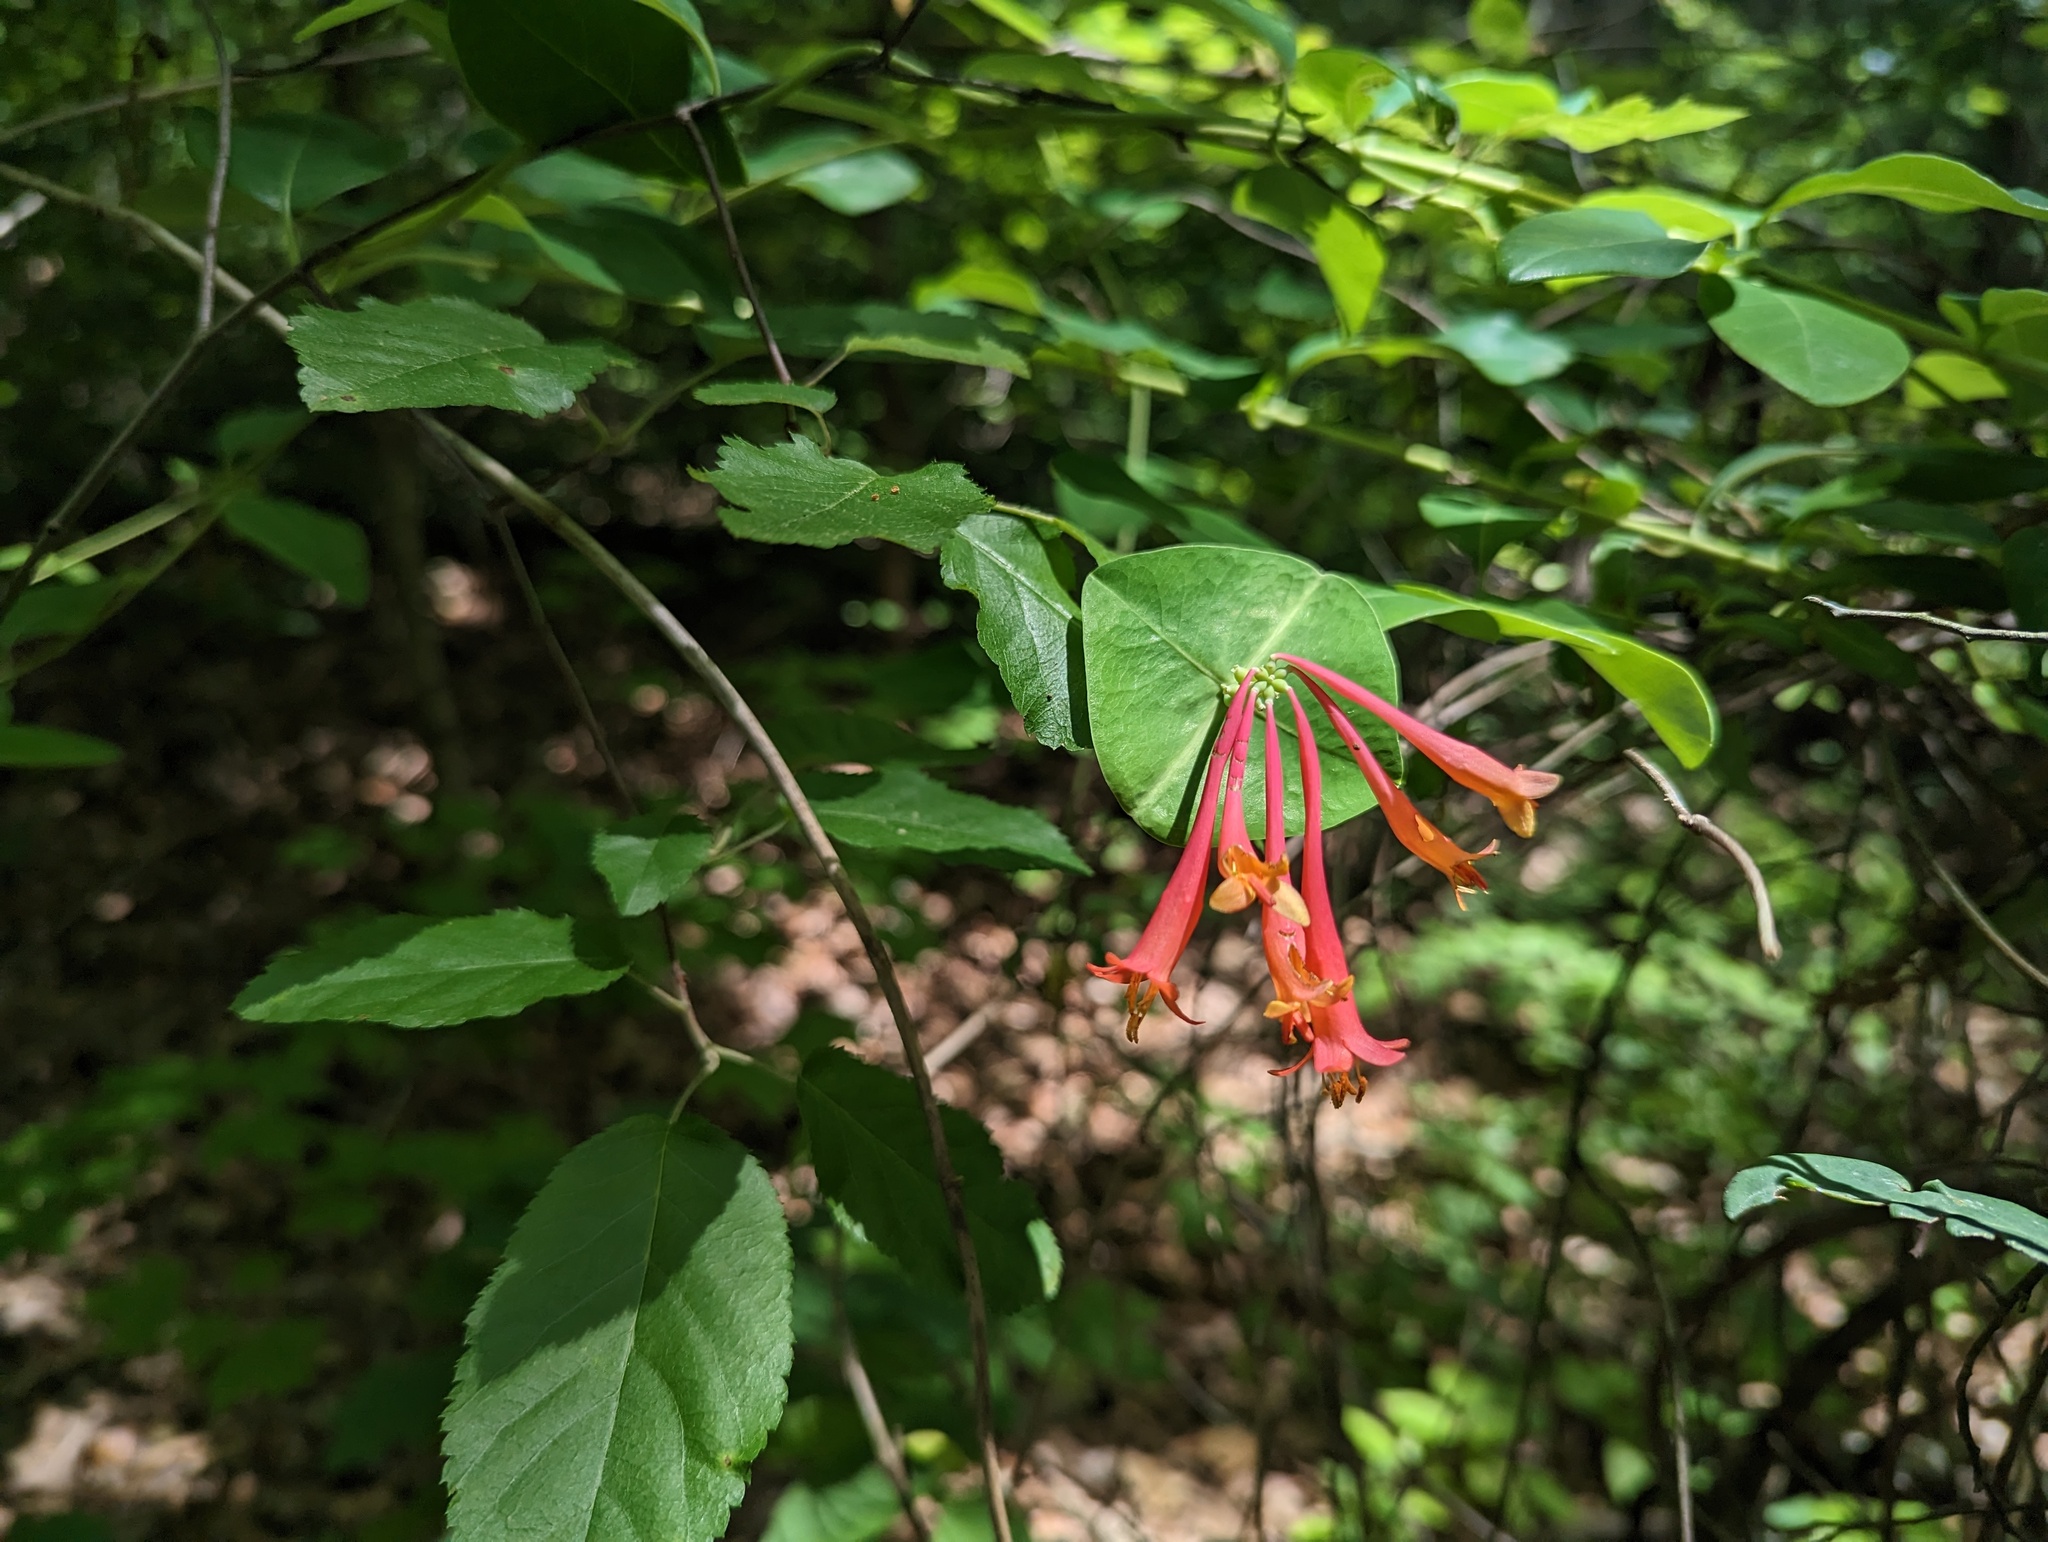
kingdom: Plantae
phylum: Tracheophyta
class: Magnoliopsida
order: Dipsacales
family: Caprifoliaceae
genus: Lonicera
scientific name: Lonicera sempervirens
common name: Coral honeysuckle
